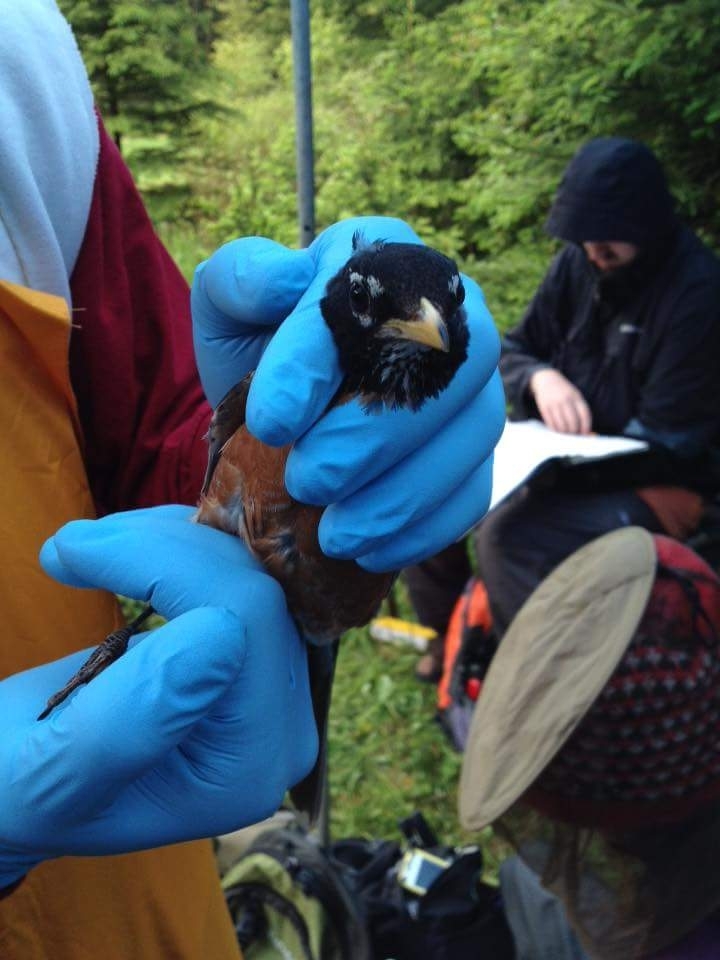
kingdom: Animalia
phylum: Chordata
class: Aves
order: Passeriformes
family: Turdidae
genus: Turdus
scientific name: Turdus migratorius
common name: American robin
